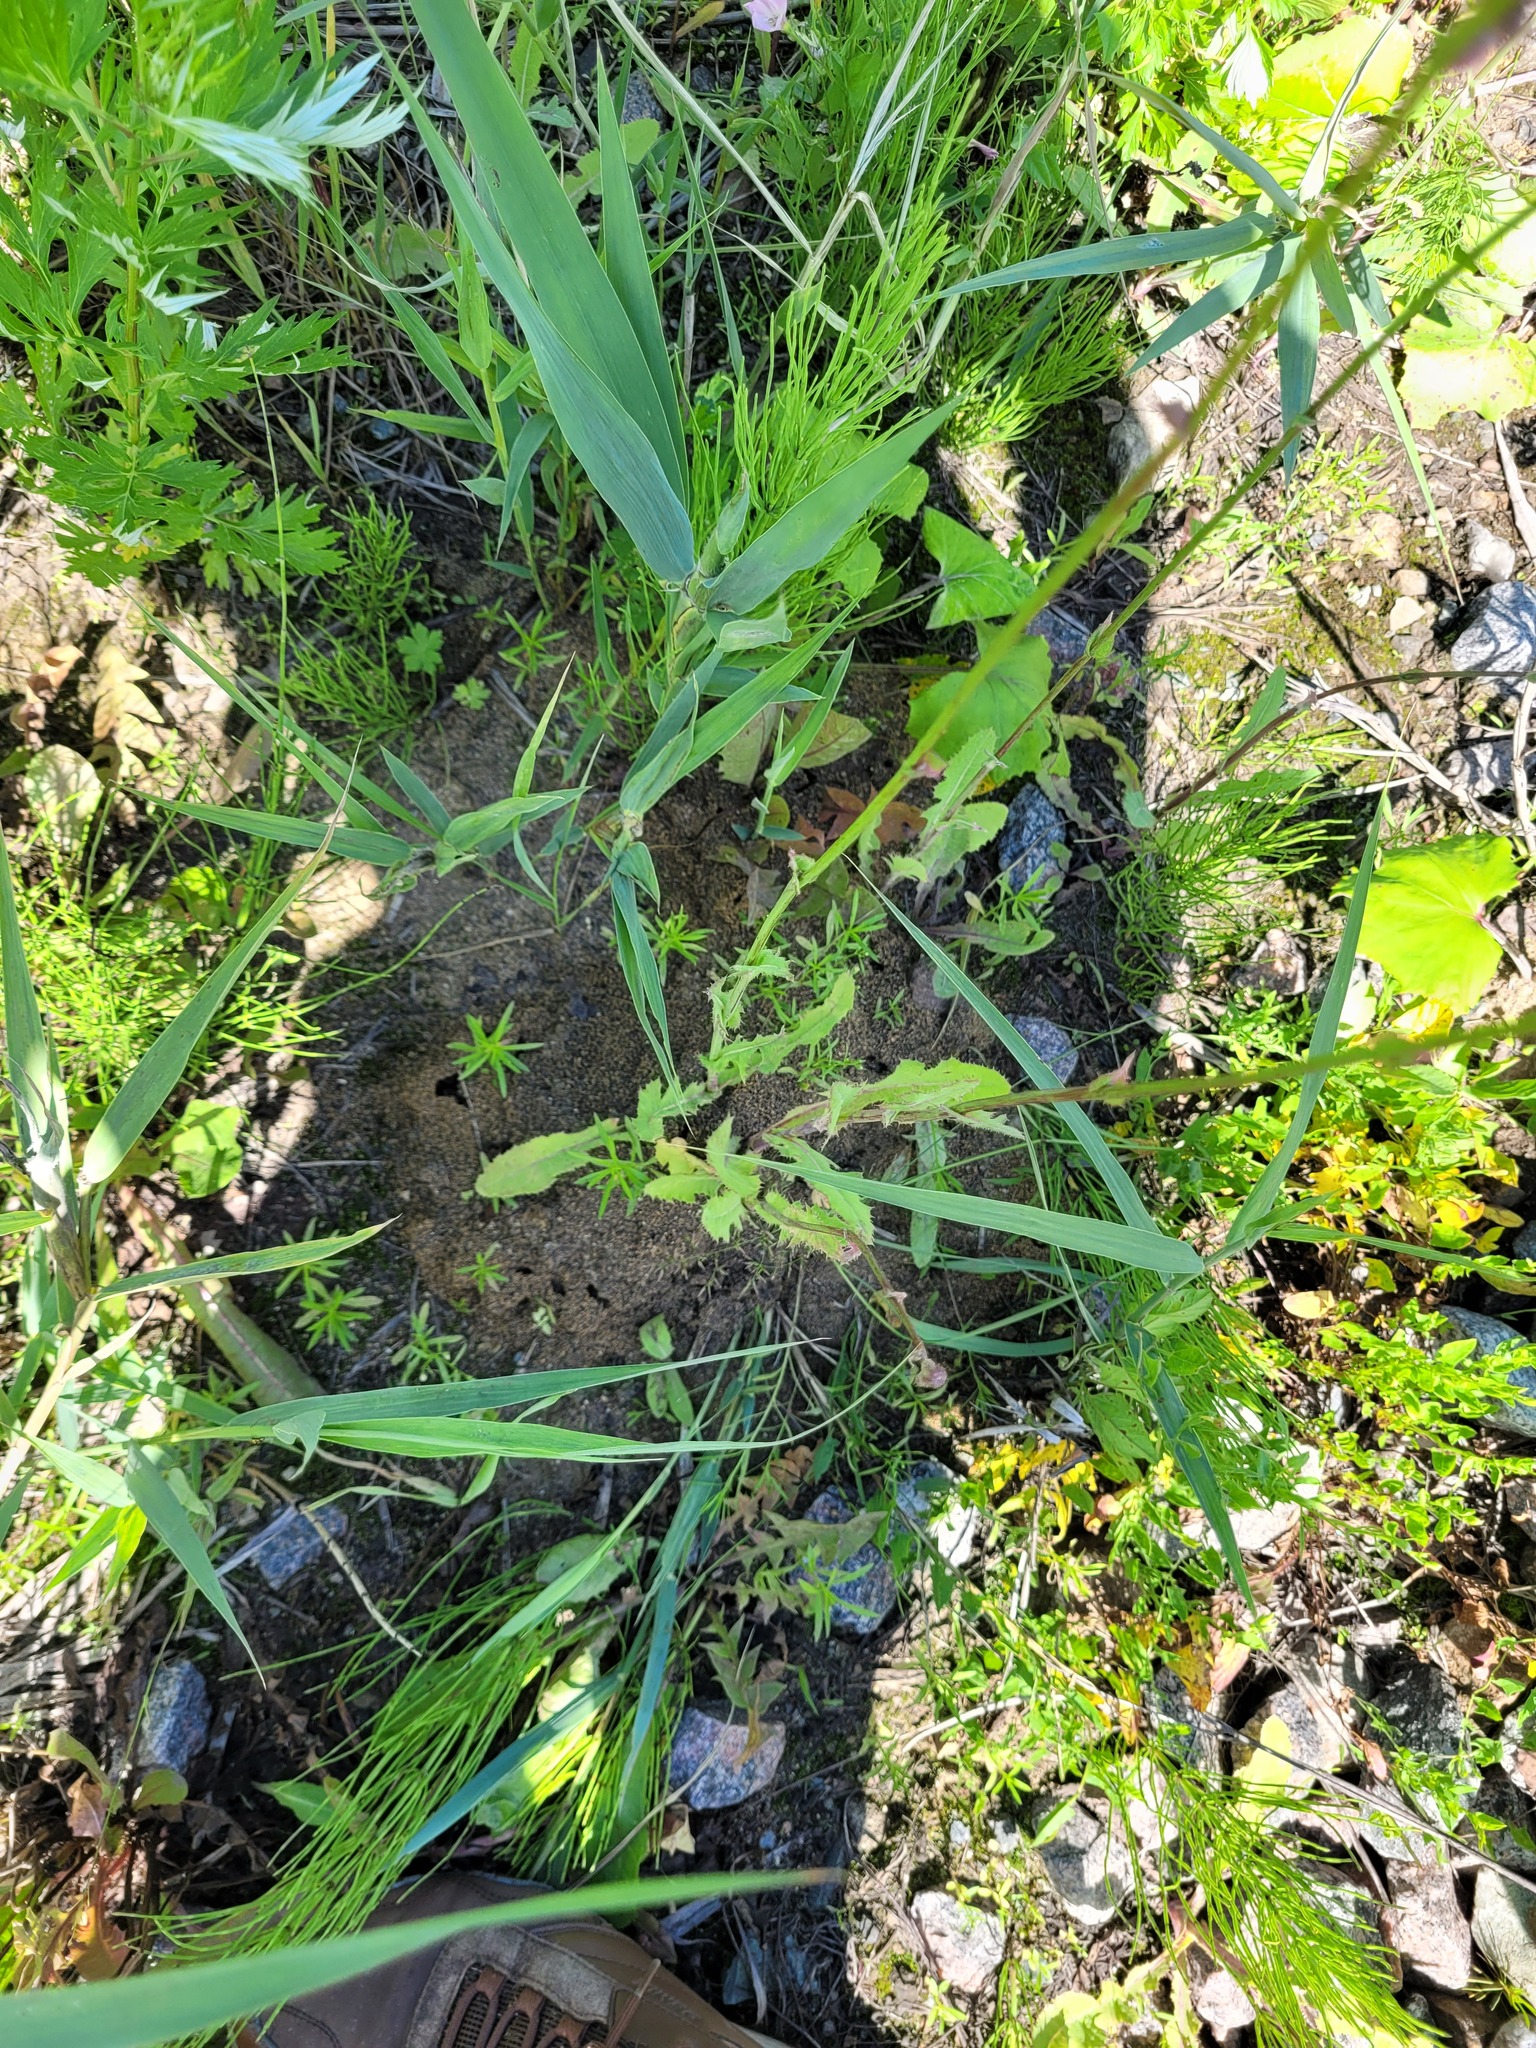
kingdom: Plantae
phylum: Tracheophyta
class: Magnoliopsida
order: Asterales
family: Asteraceae
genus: Sonchus
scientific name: Sonchus arvensis
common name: Perennial sow-thistle
